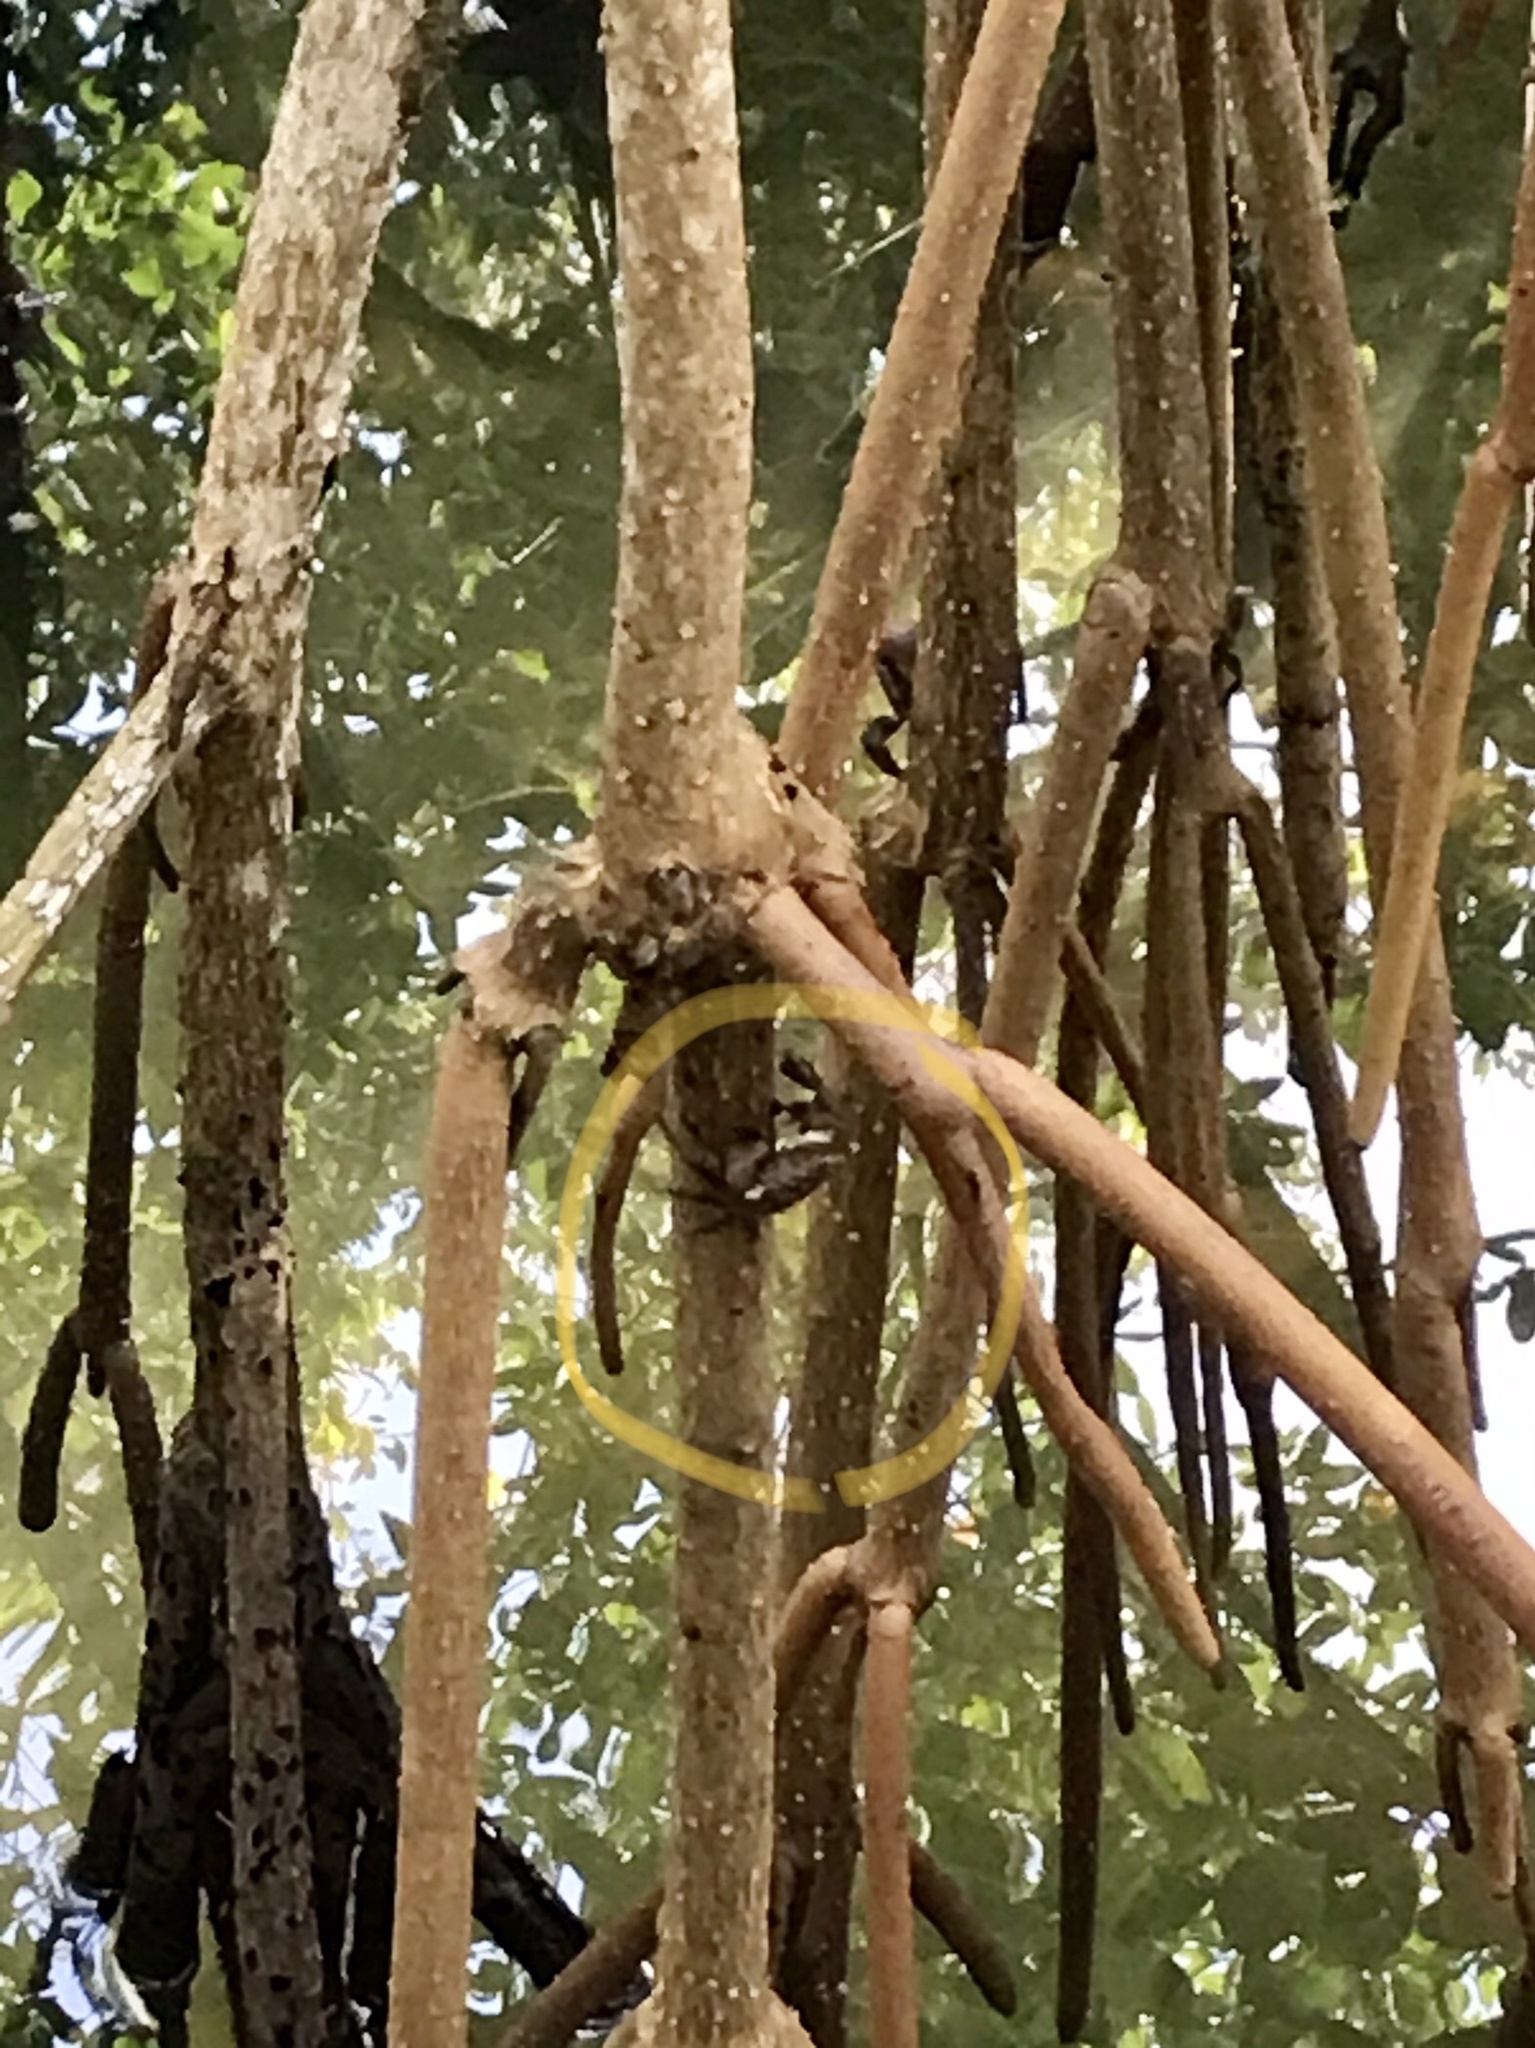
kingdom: Animalia
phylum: Arthropoda
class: Malacostraca
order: Decapoda
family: Sesarmidae
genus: Aratus
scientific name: Aratus pisonii
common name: Mangrove crab
